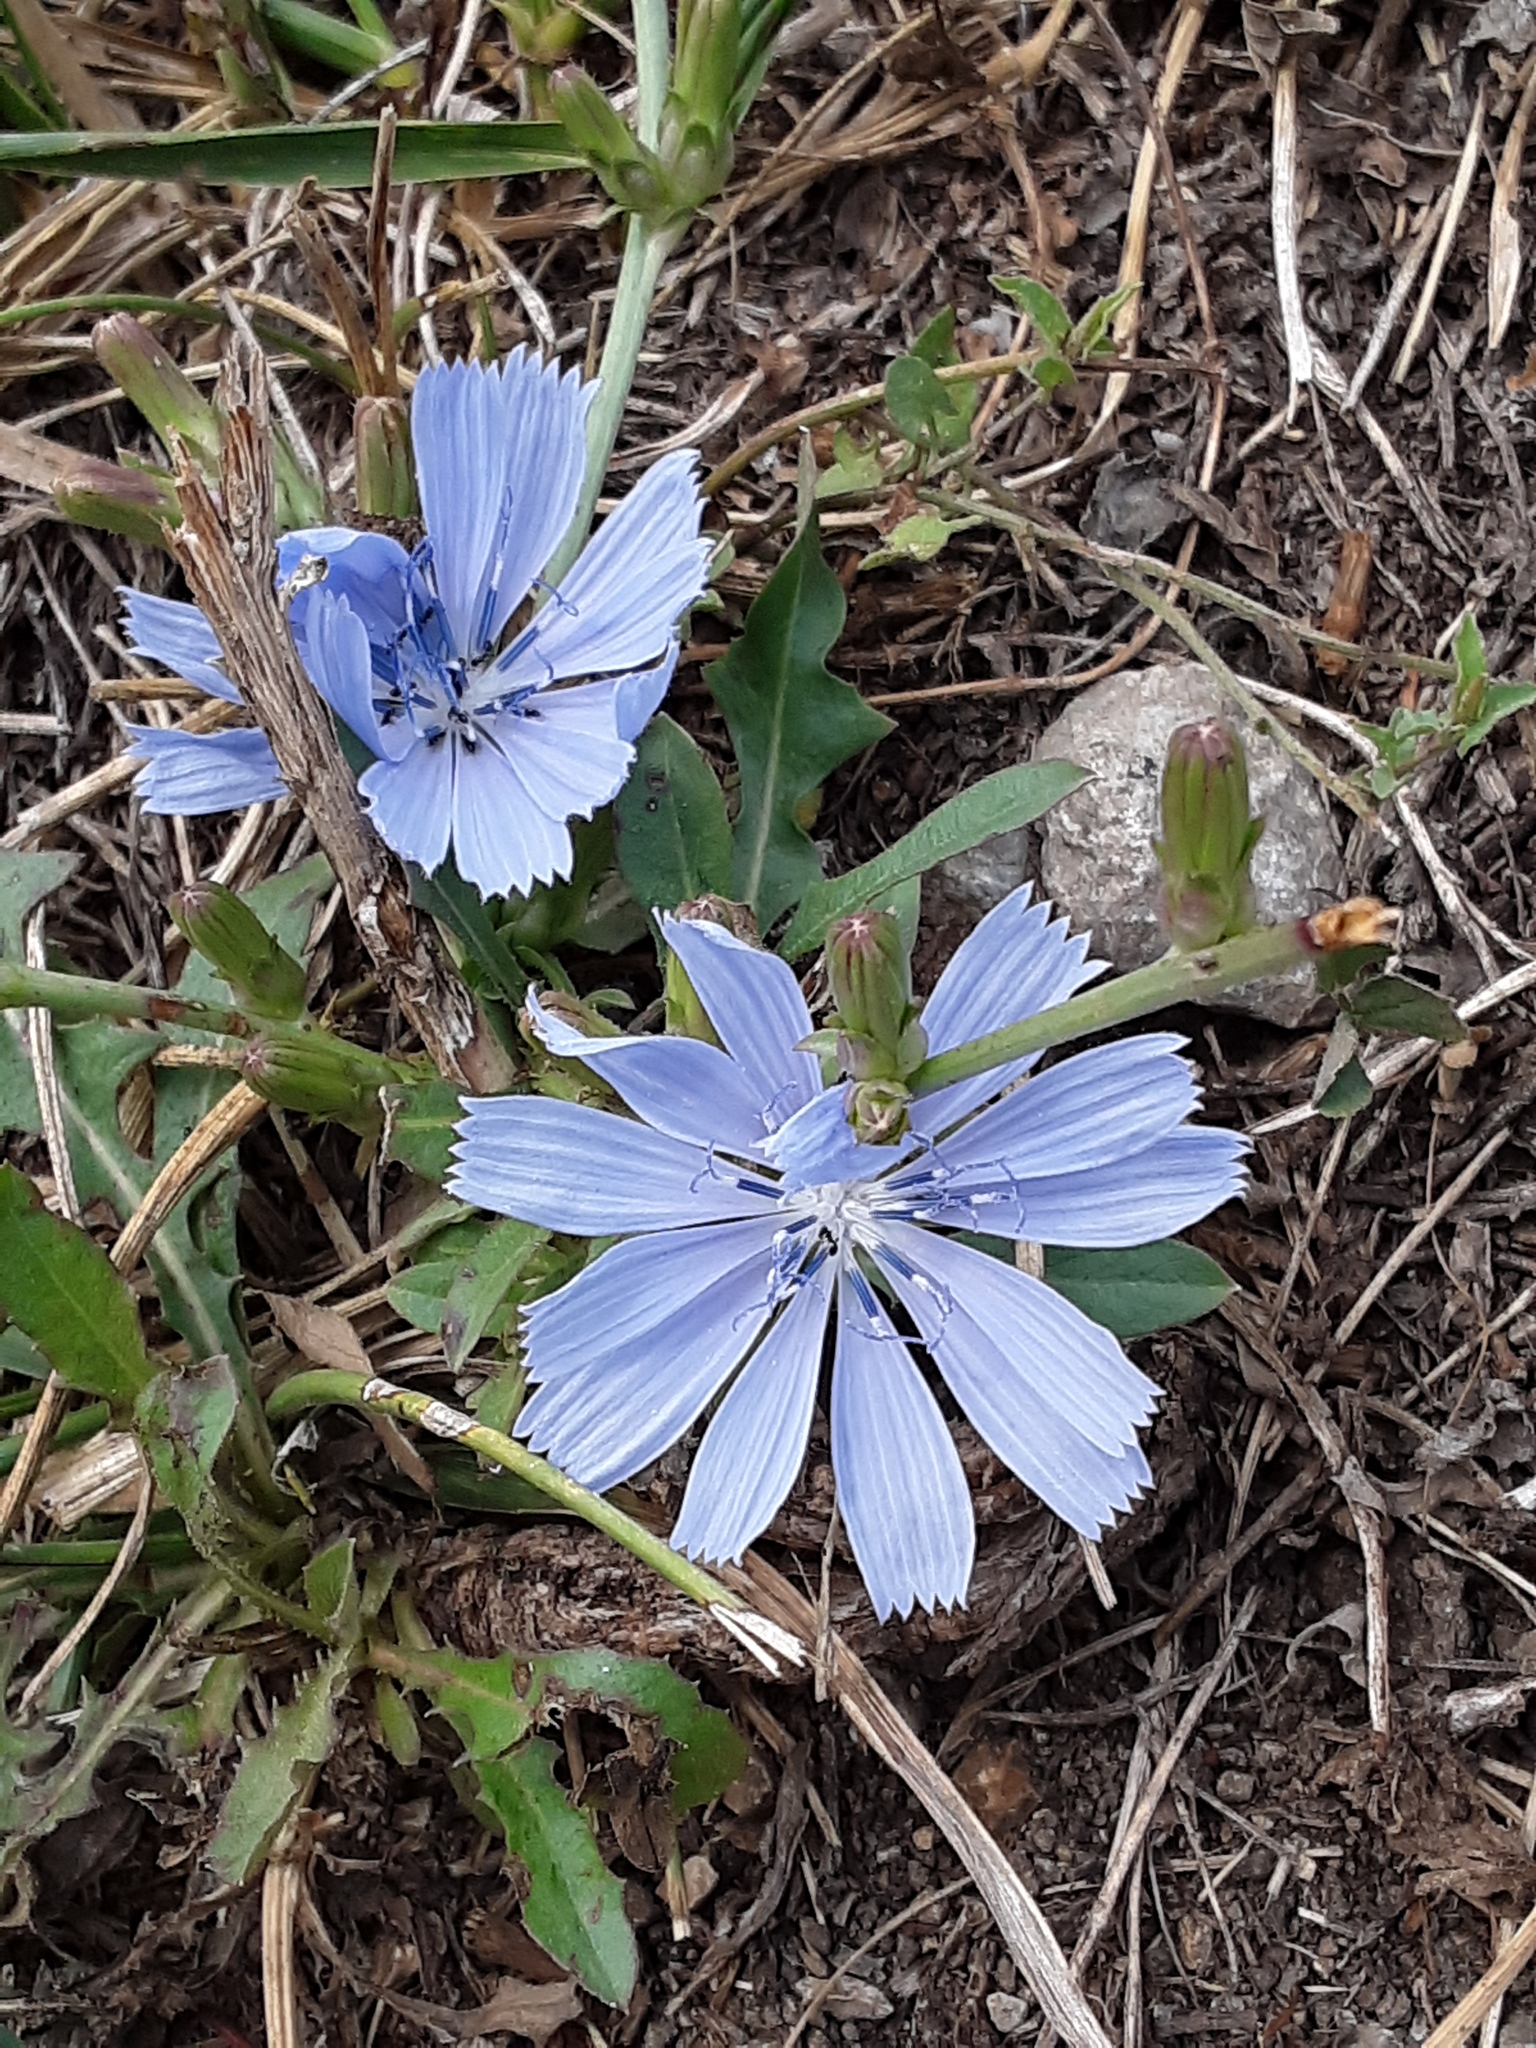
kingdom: Plantae
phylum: Tracheophyta
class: Magnoliopsida
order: Asterales
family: Asteraceae
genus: Cichorium
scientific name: Cichorium intybus
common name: Chicory
